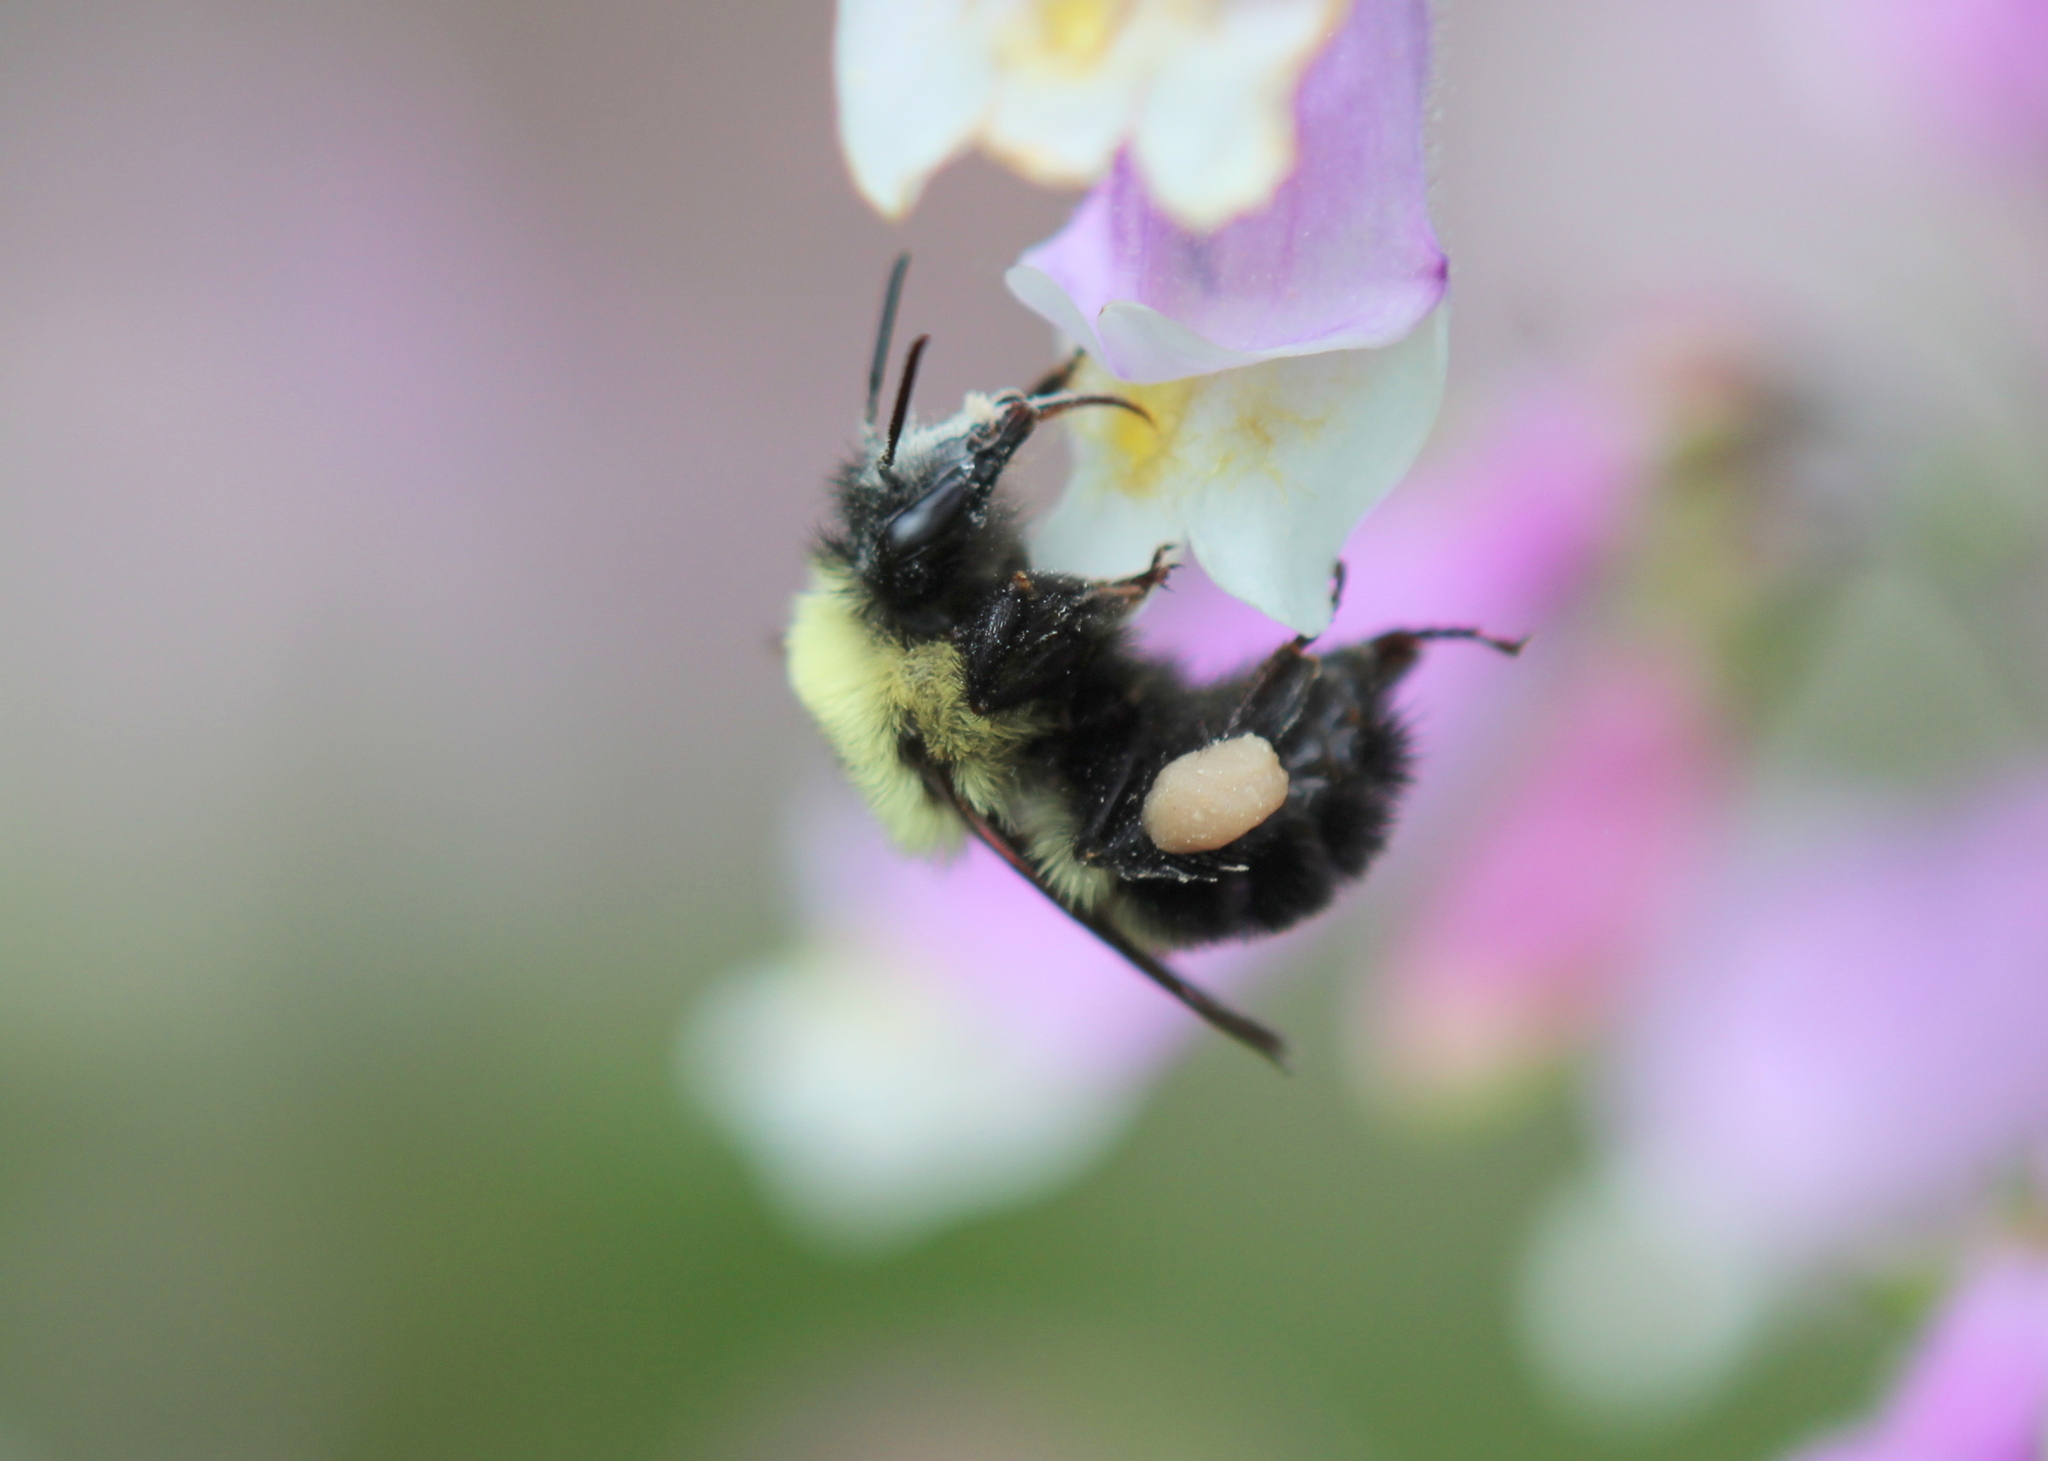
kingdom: Animalia
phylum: Arthropoda
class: Insecta
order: Hymenoptera
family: Apidae
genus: Bombus
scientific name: Bombus bimaculatus
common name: Two-spotted bumble bee
